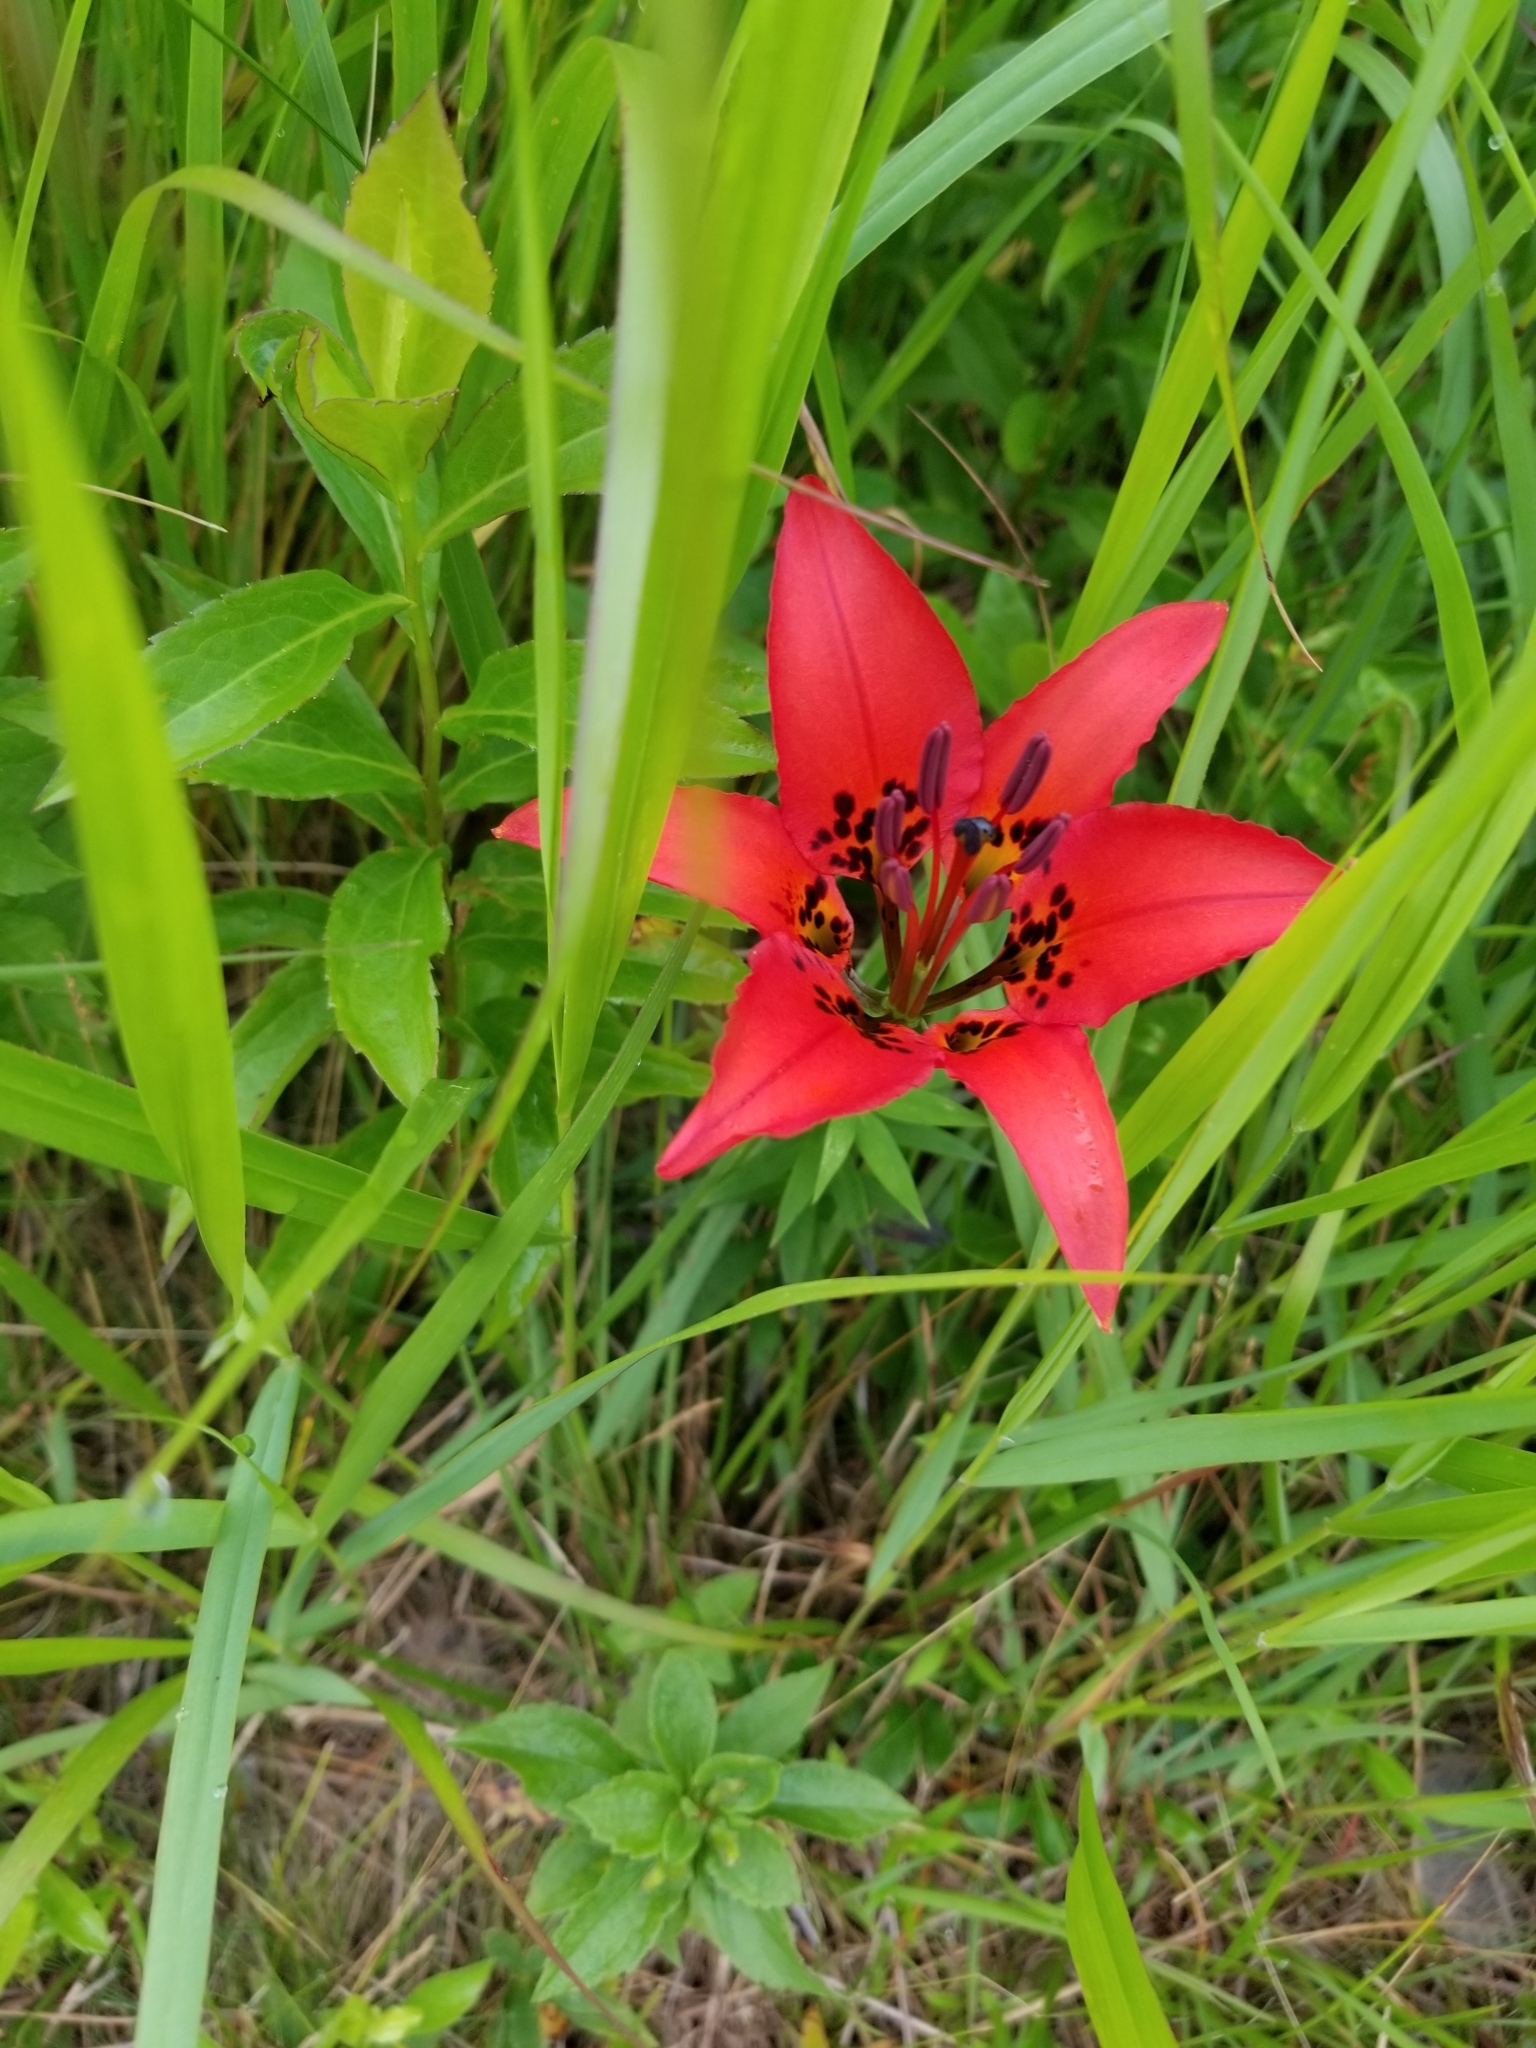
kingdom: Plantae
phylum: Tracheophyta
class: Liliopsida
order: Liliales
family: Liliaceae
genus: Lilium
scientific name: Lilium philadelphicum
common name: Red lily
